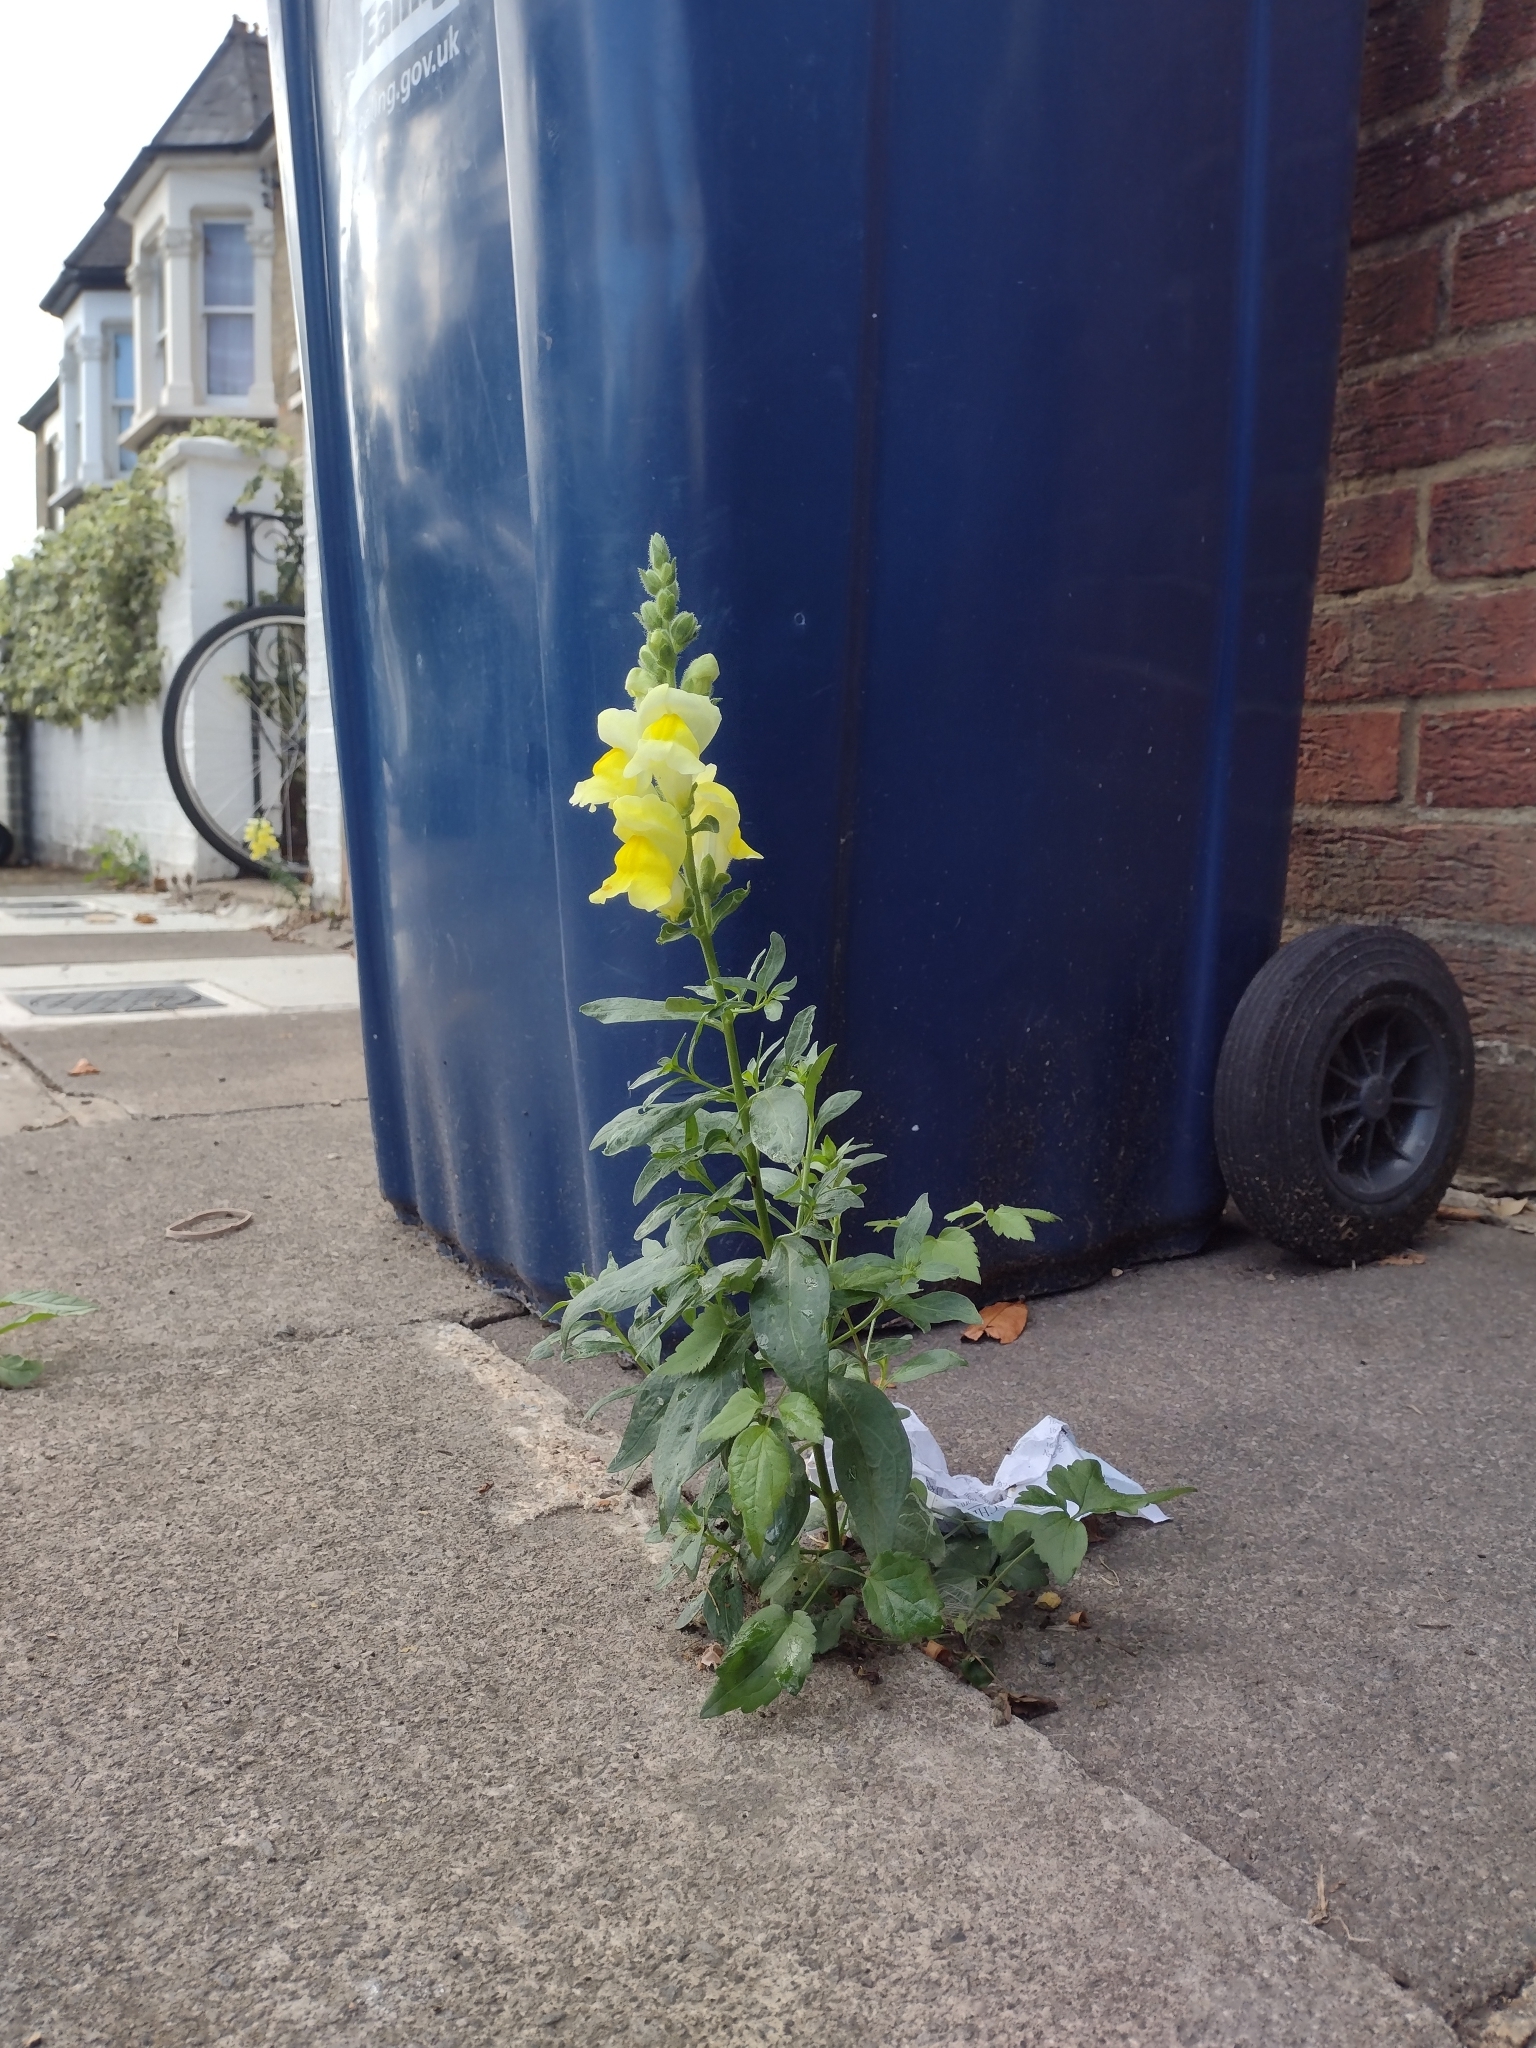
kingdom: Plantae
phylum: Tracheophyta
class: Magnoliopsida
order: Lamiales
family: Plantaginaceae
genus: Antirrhinum
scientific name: Antirrhinum majus
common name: Snapdragon
